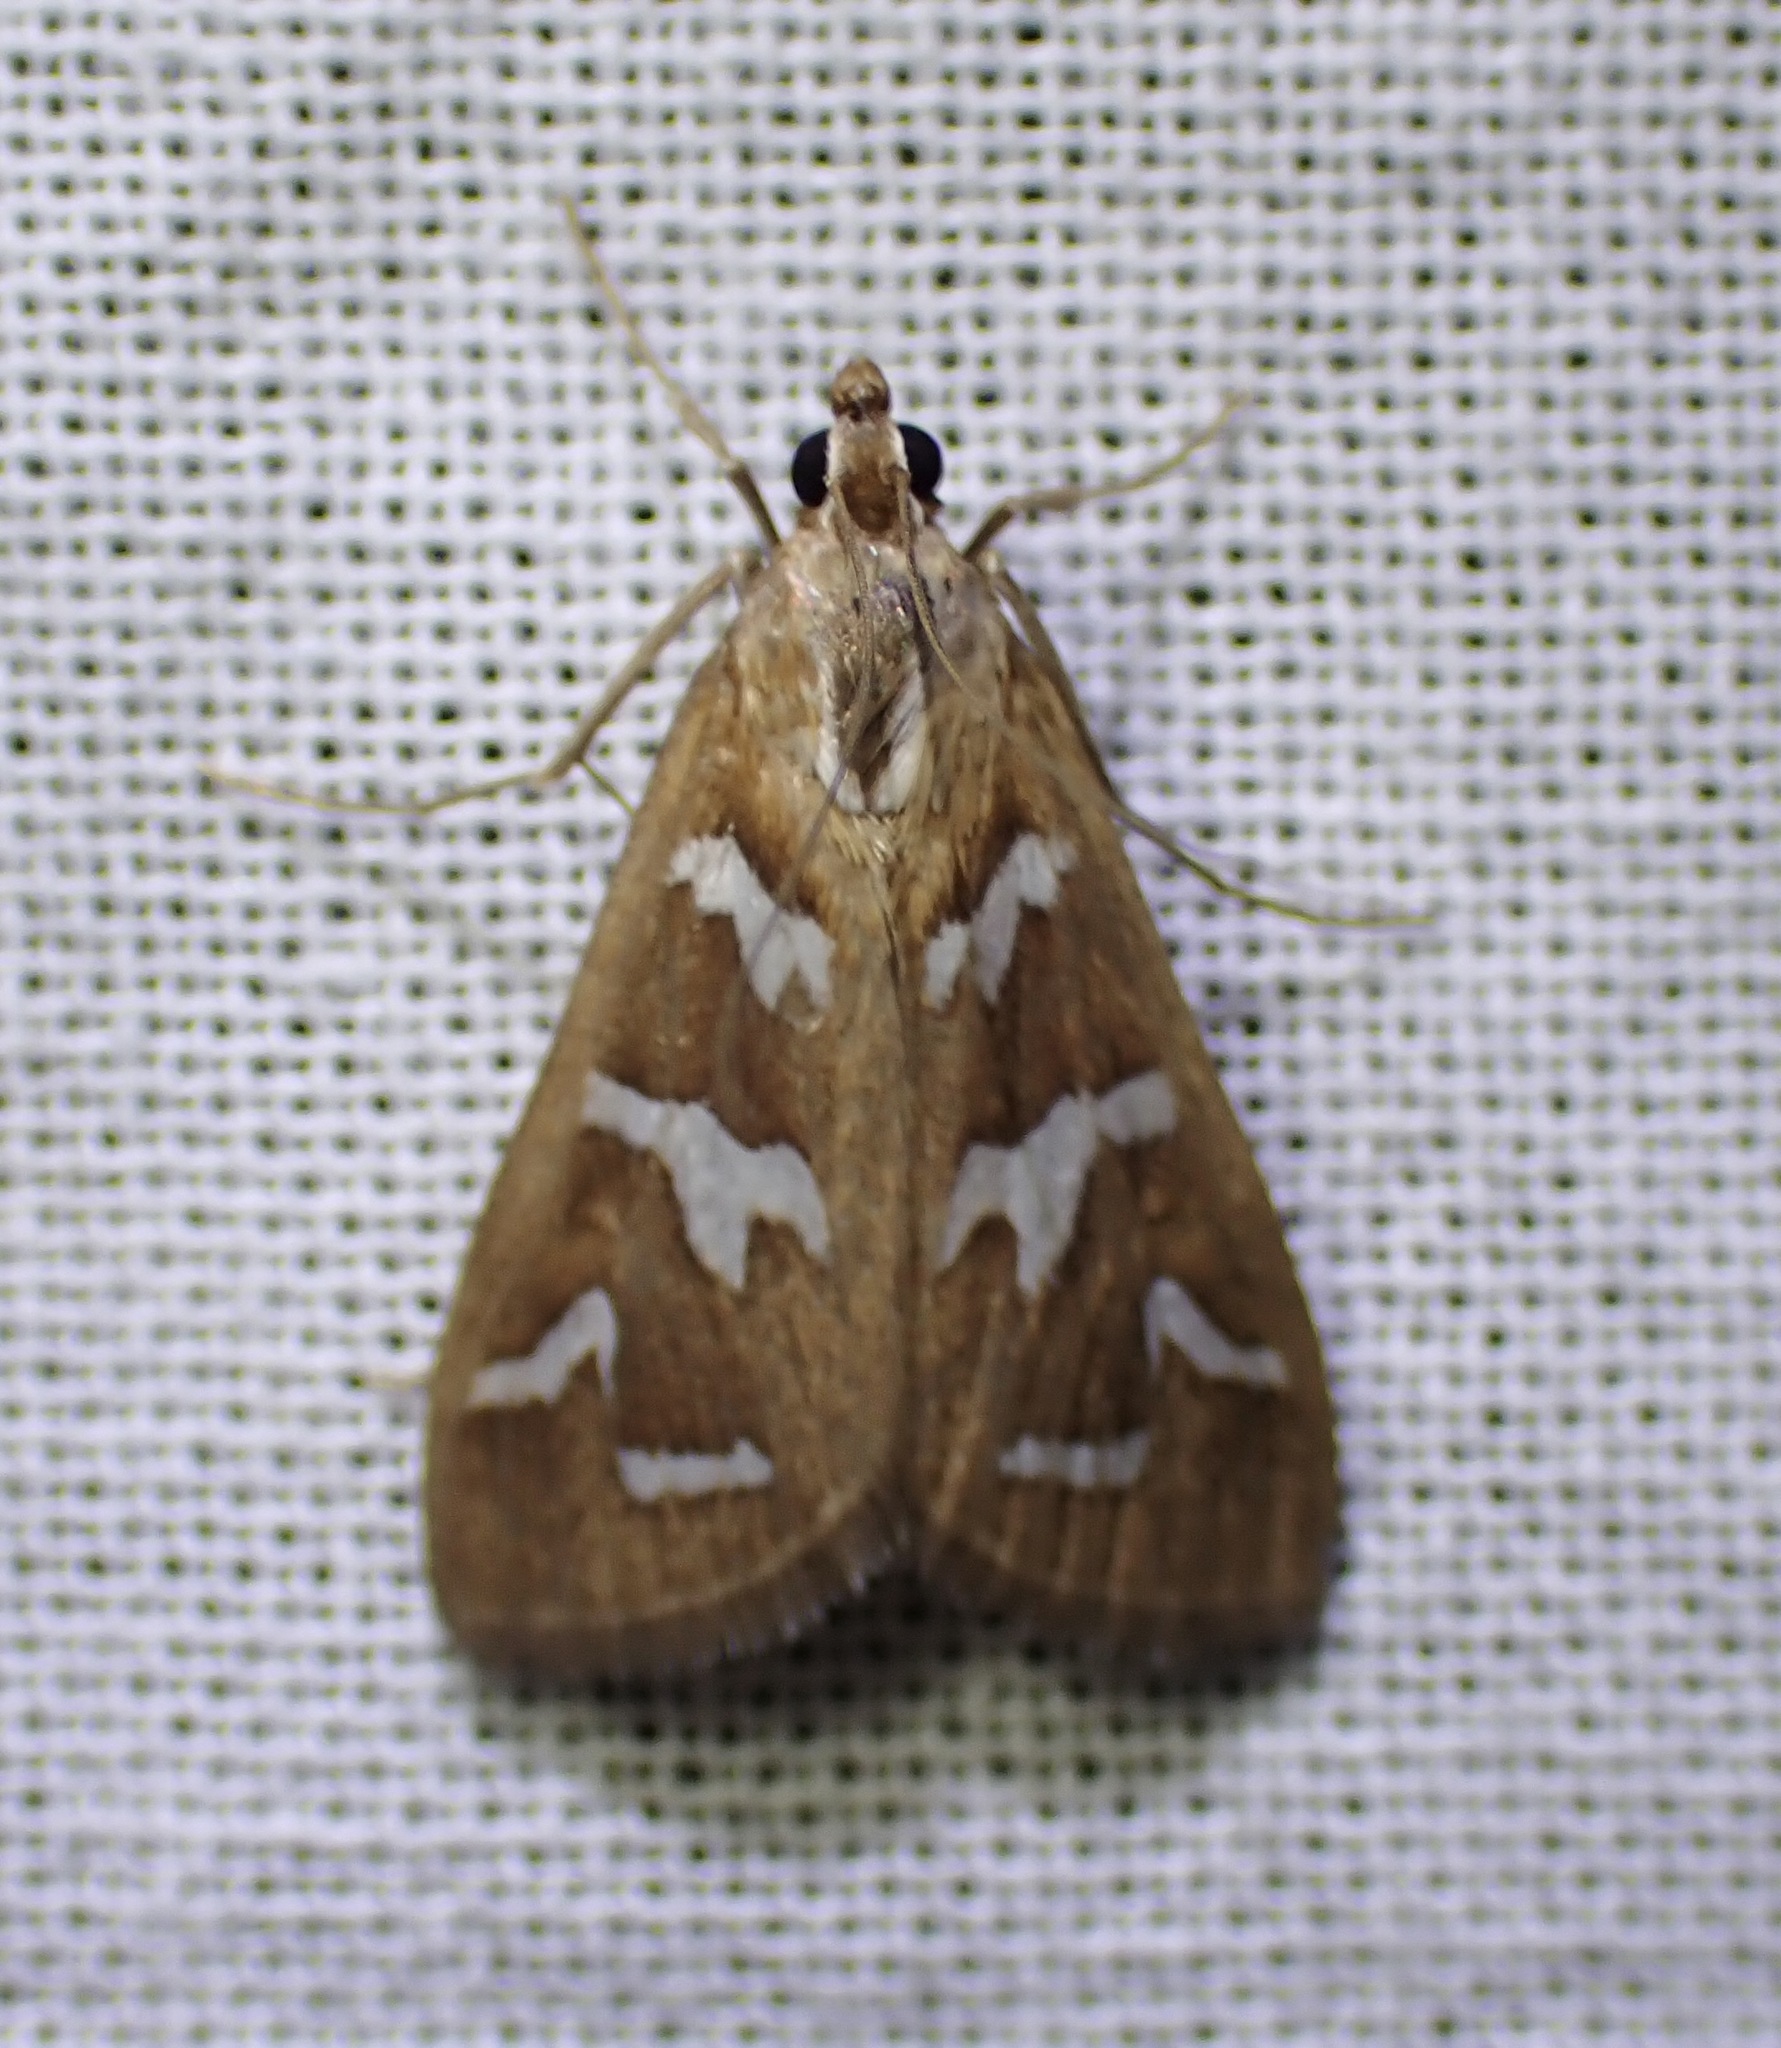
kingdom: Animalia
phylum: Arthropoda
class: Insecta
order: Lepidoptera
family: Crambidae
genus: Diastictis
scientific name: Diastictis fracturalis
